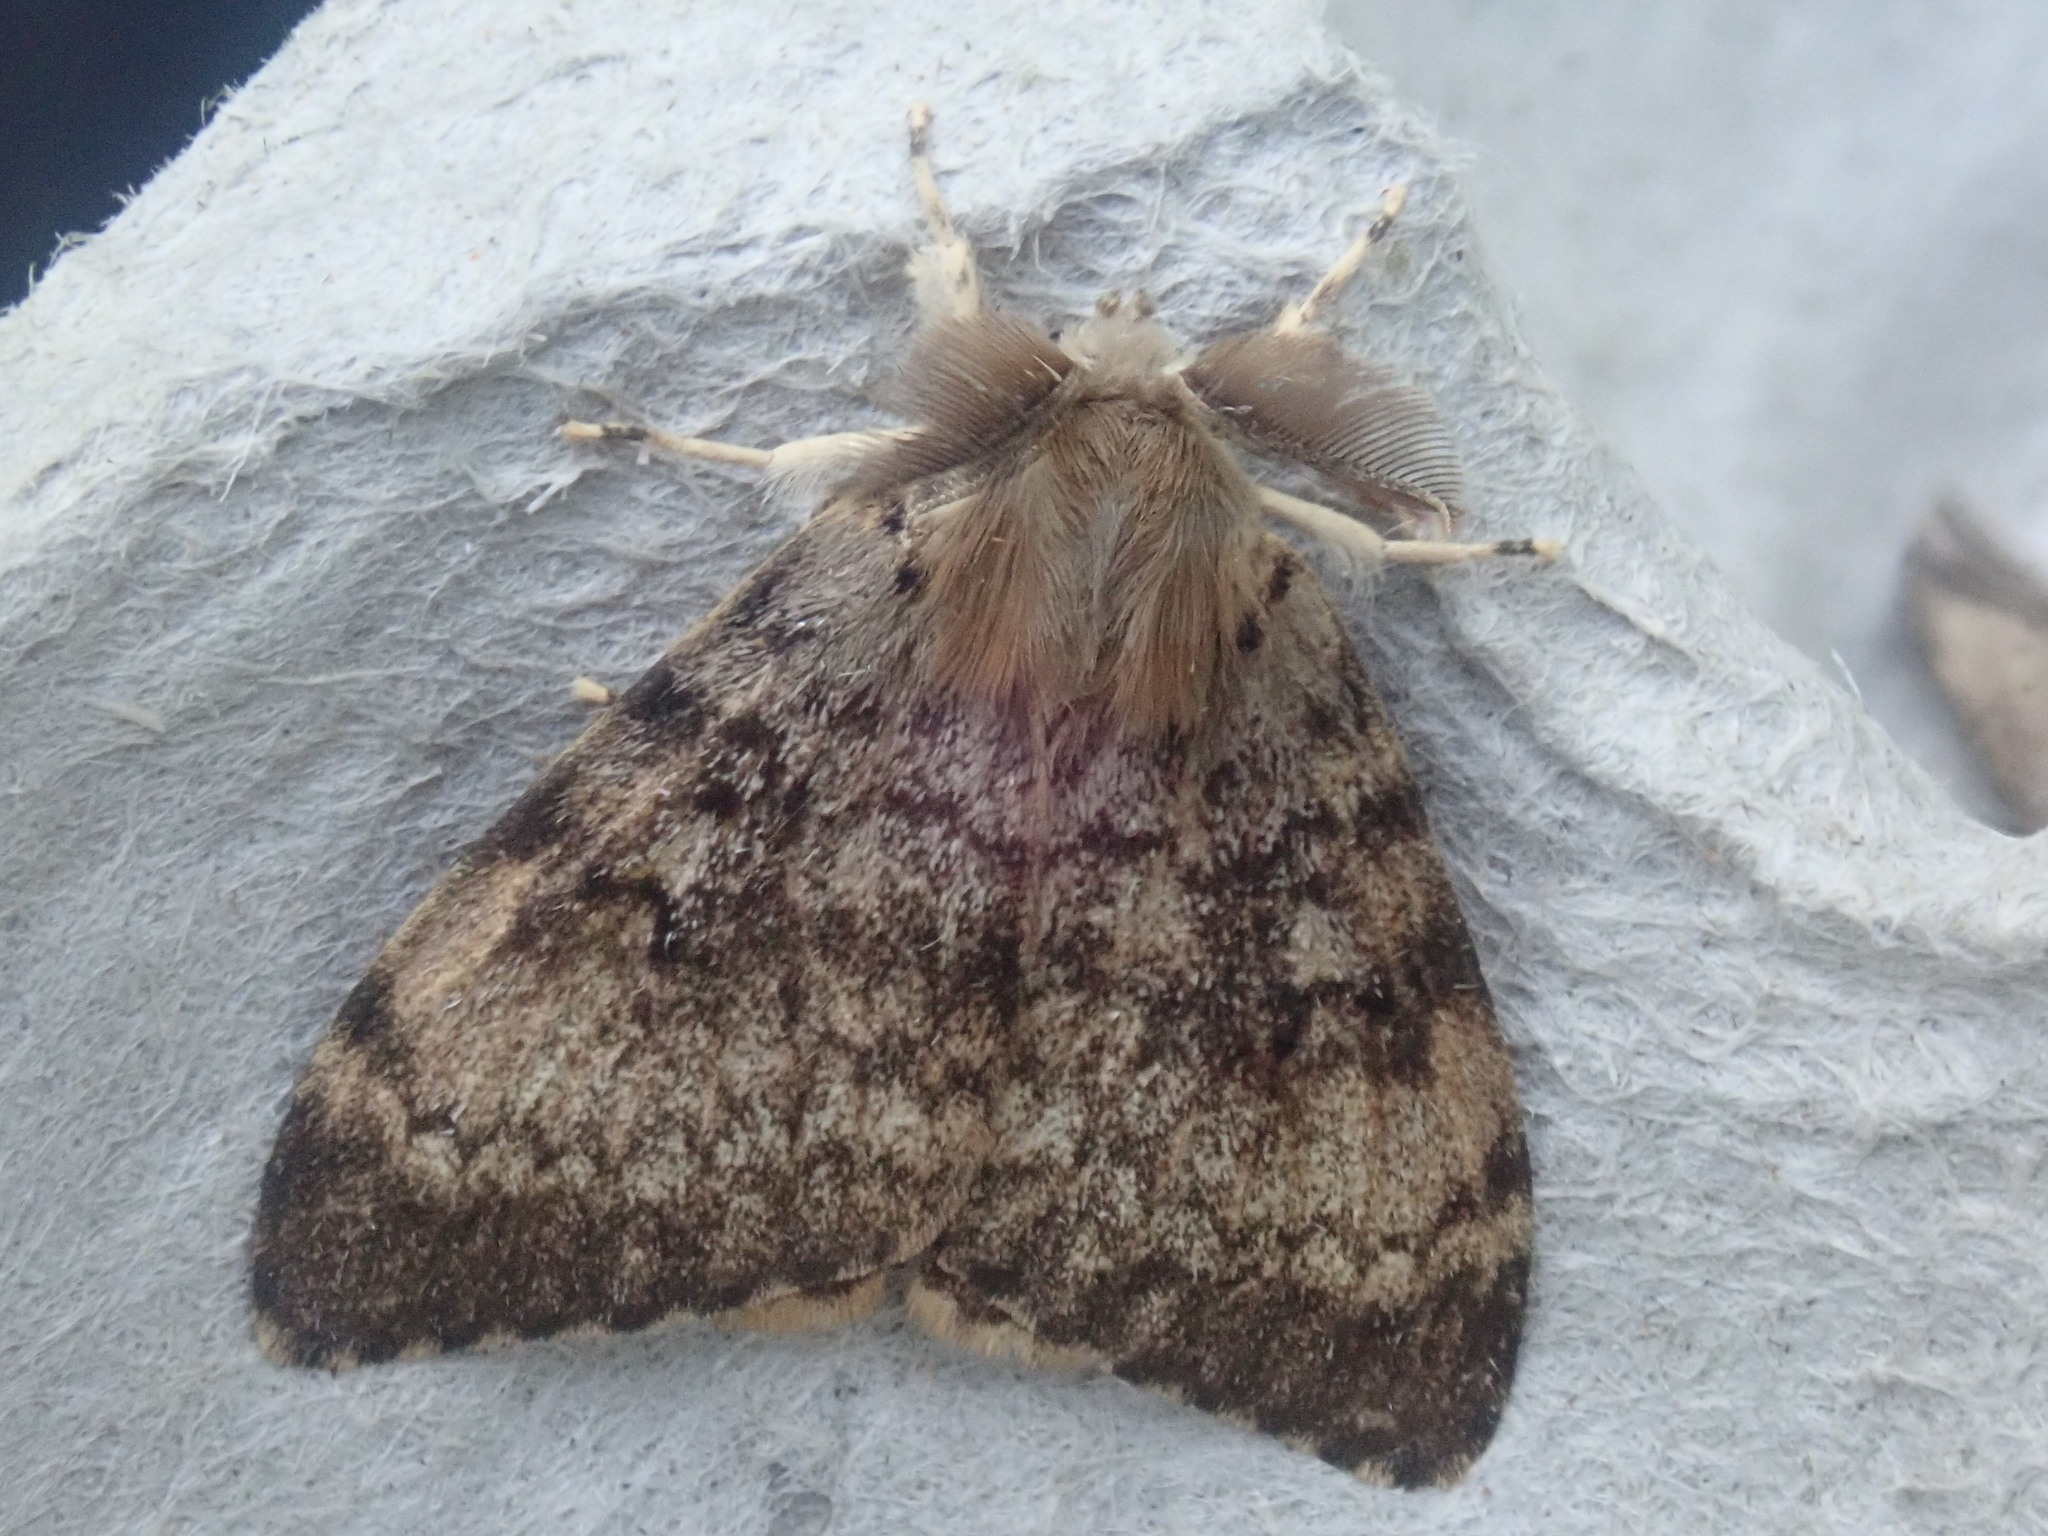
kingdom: Animalia
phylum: Arthropoda
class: Insecta
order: Lepidoptera
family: Erebidae
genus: Lymantria
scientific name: Lymantria dispar
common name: Gypsy moth
